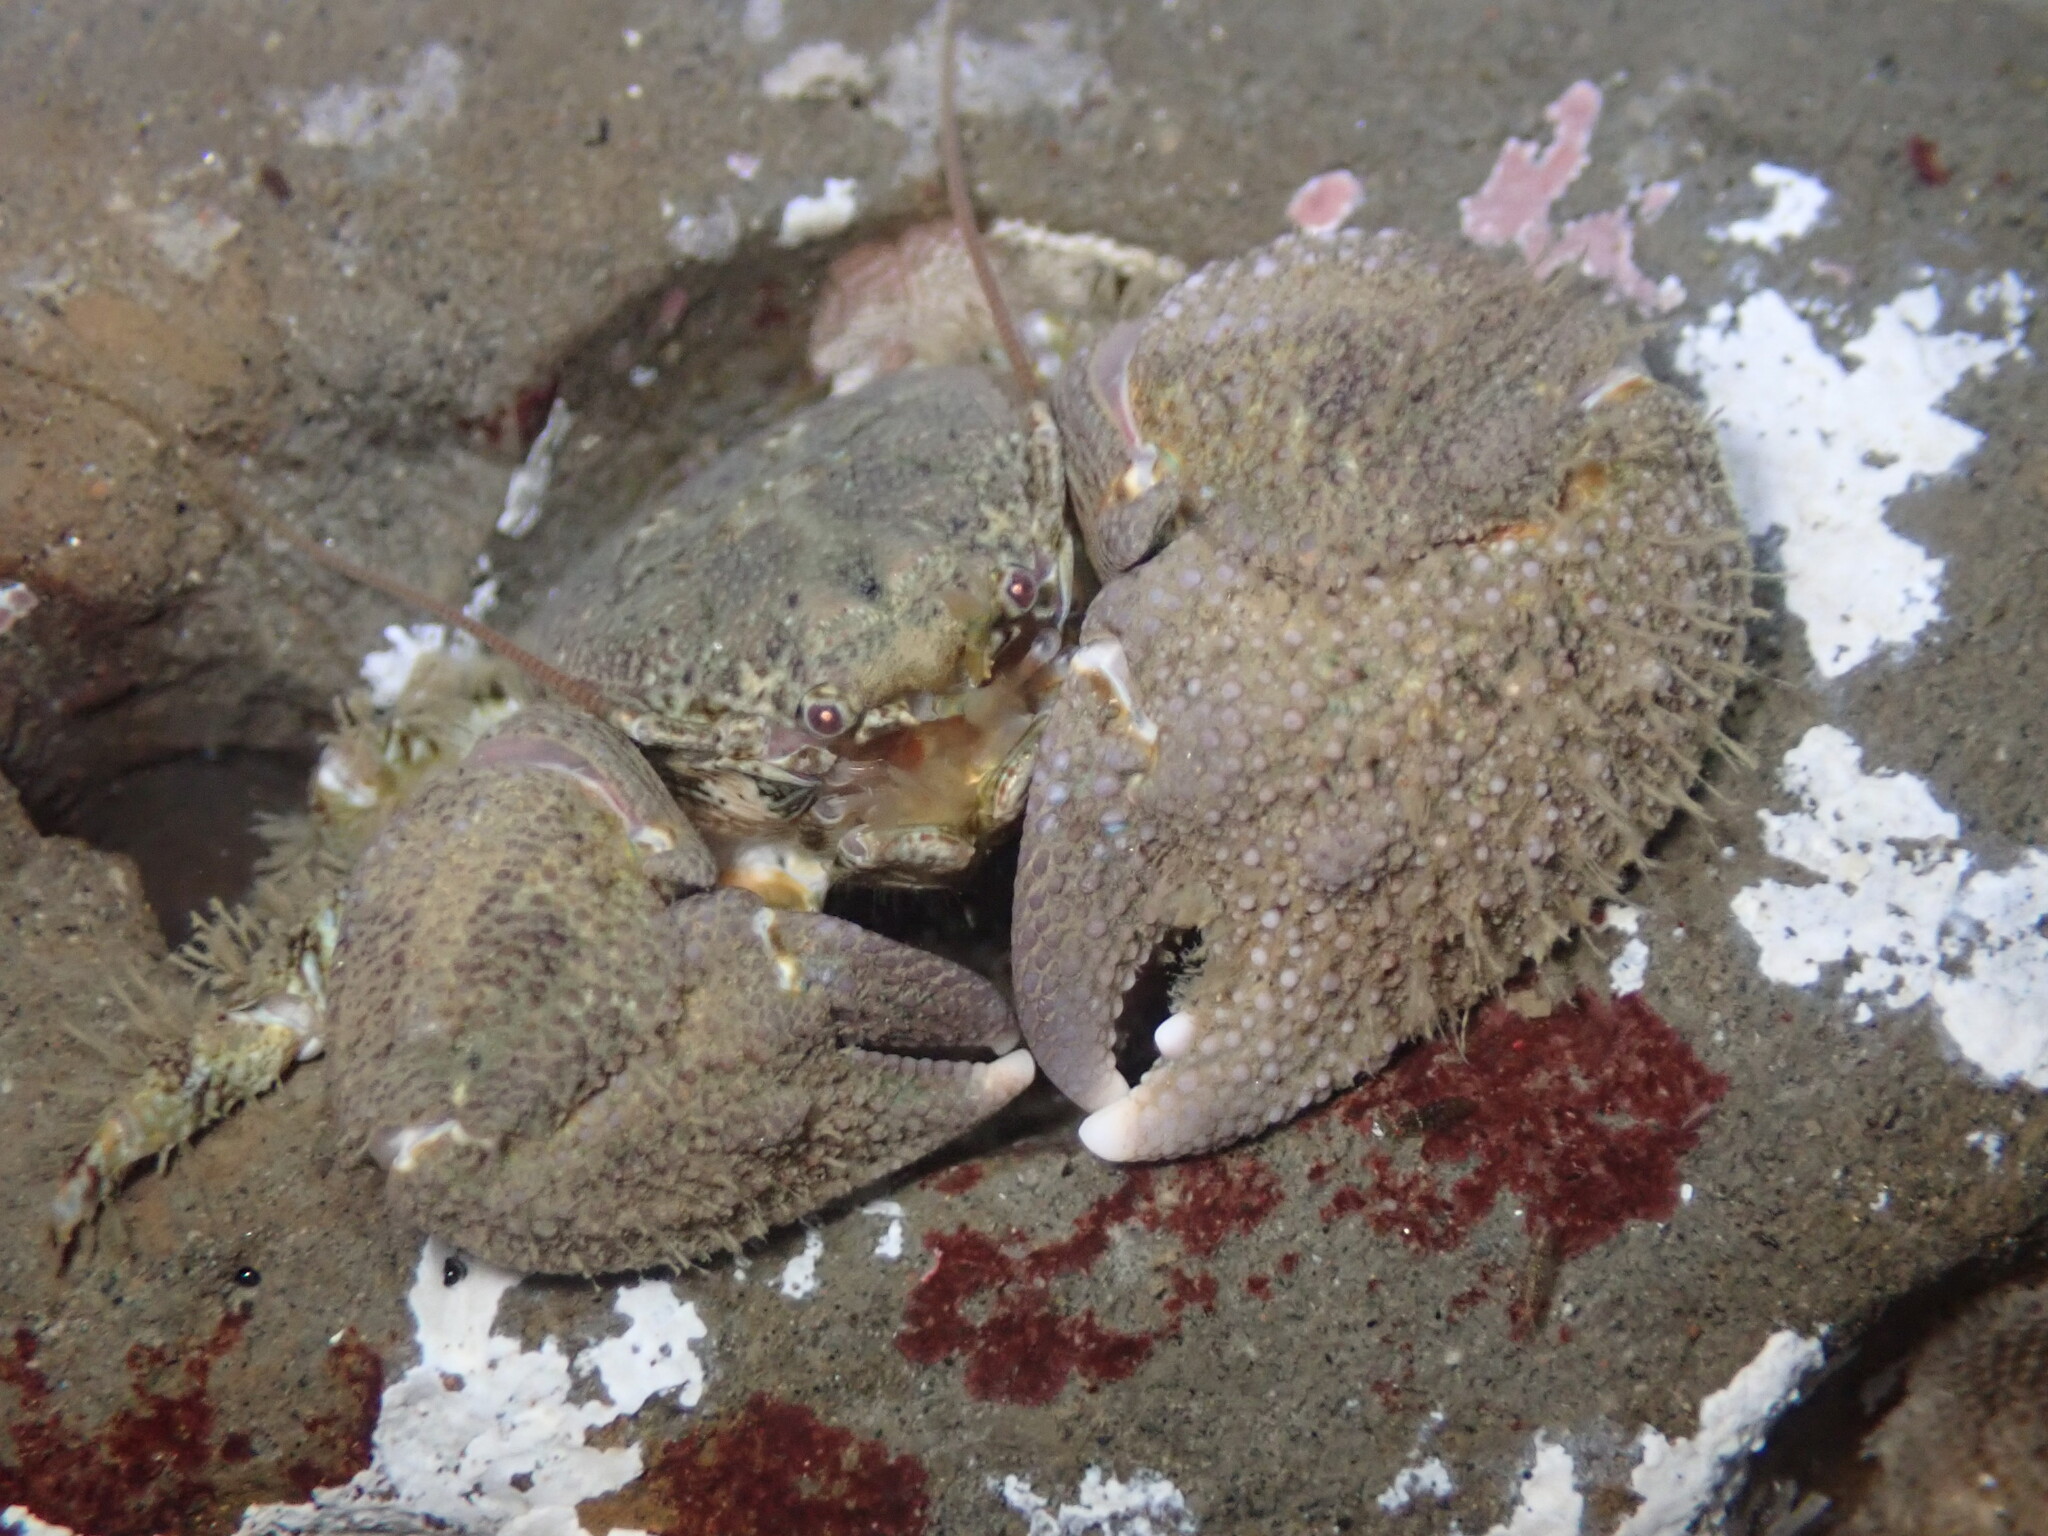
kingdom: Animalia
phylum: Arthropoda
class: Malacostraca
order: Decapoda
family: Porcellanidae
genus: Pachycheles
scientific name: Pachycheles rudis
